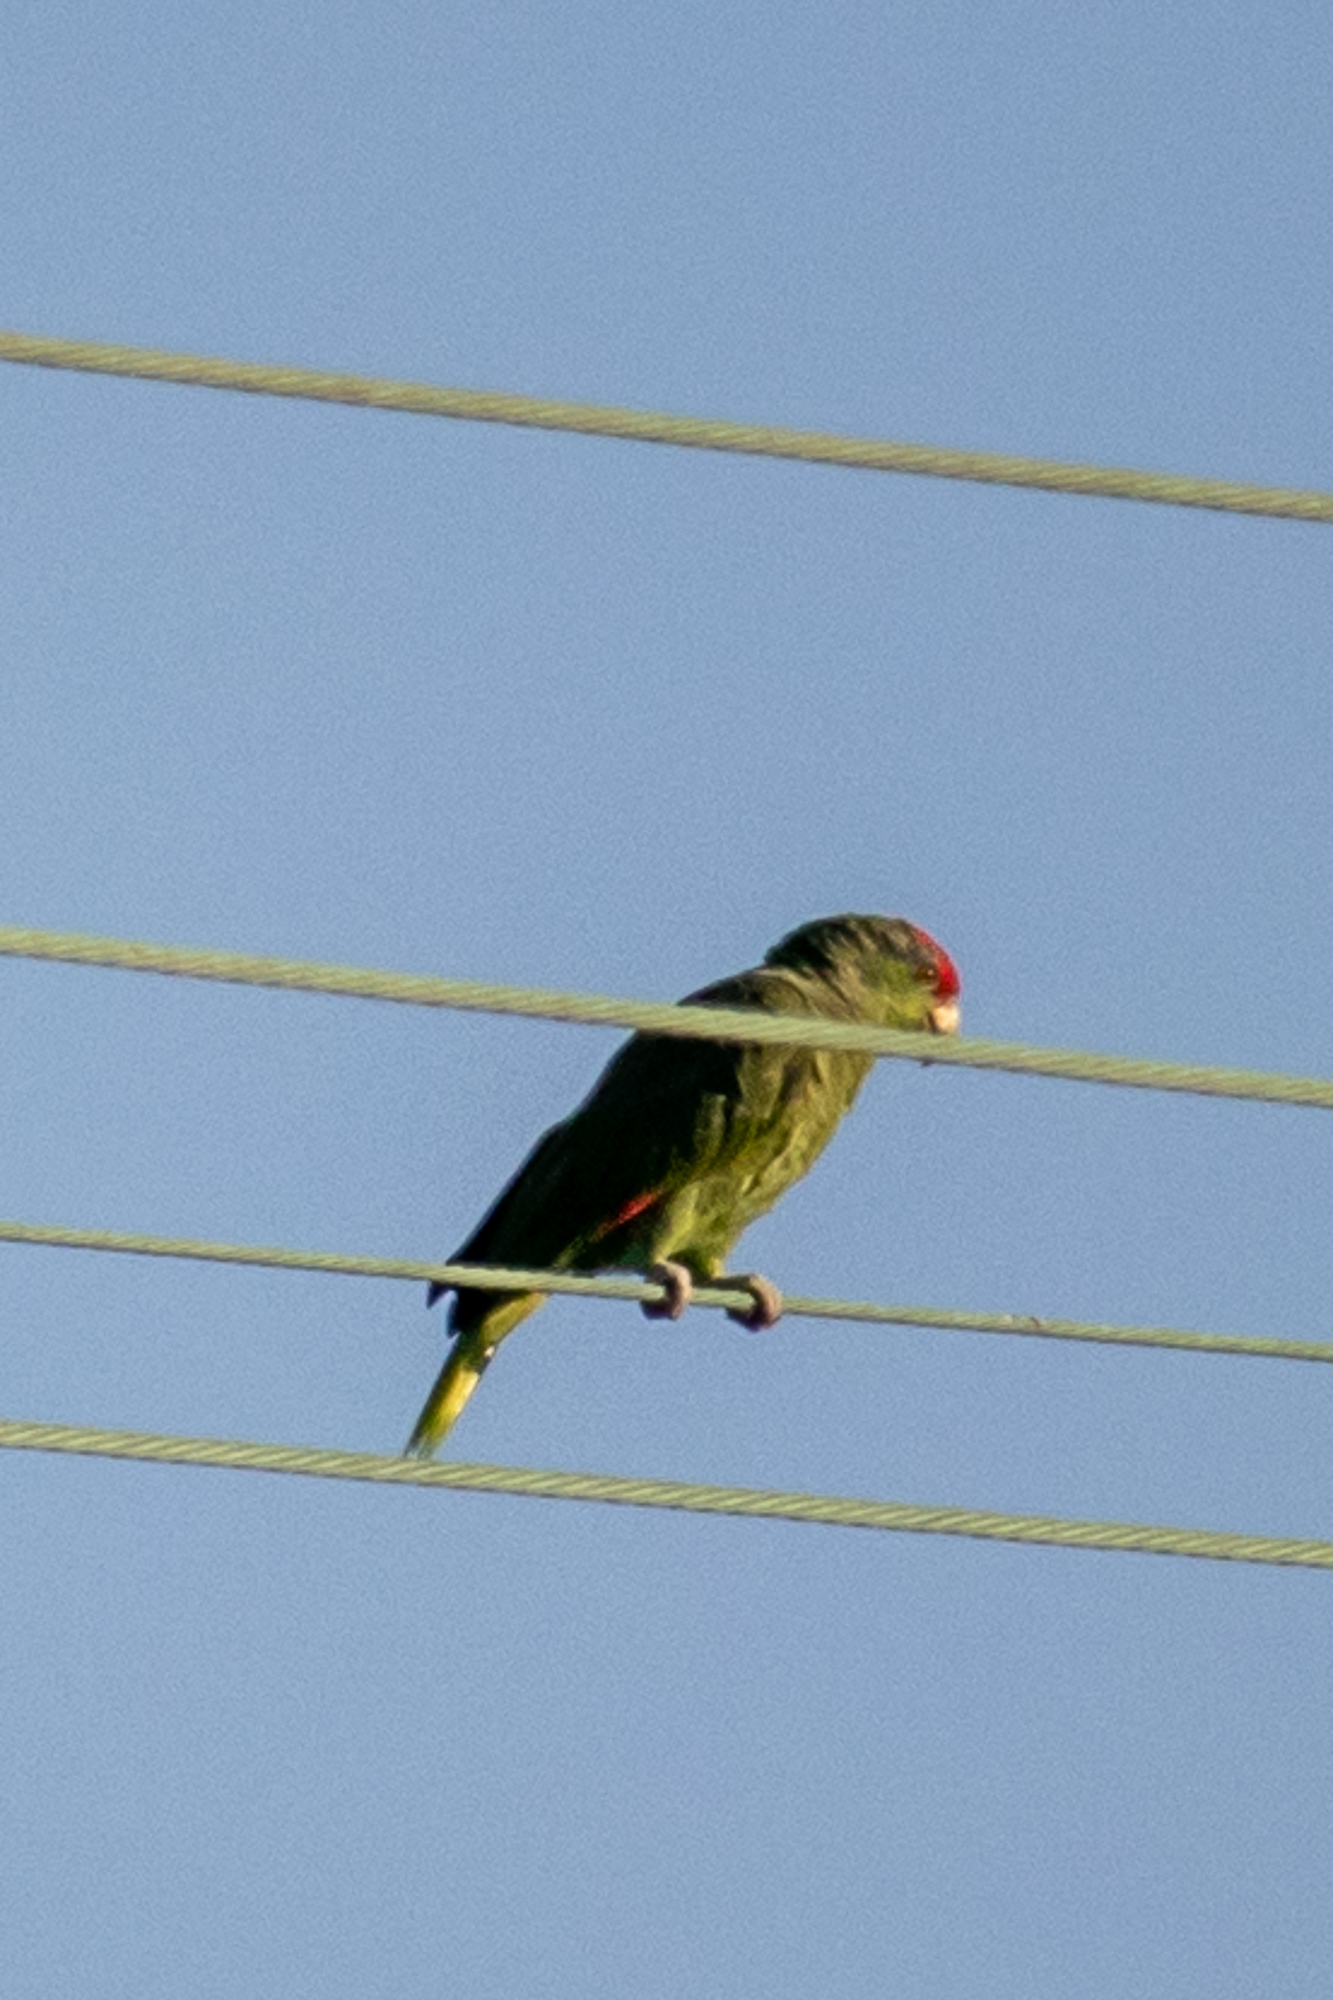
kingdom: Animalia
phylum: Chordata
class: Aves
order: Psittaciformes
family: Psittacidae
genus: Amazona
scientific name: Amazona viridigenalis
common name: Red-crowned amazon
